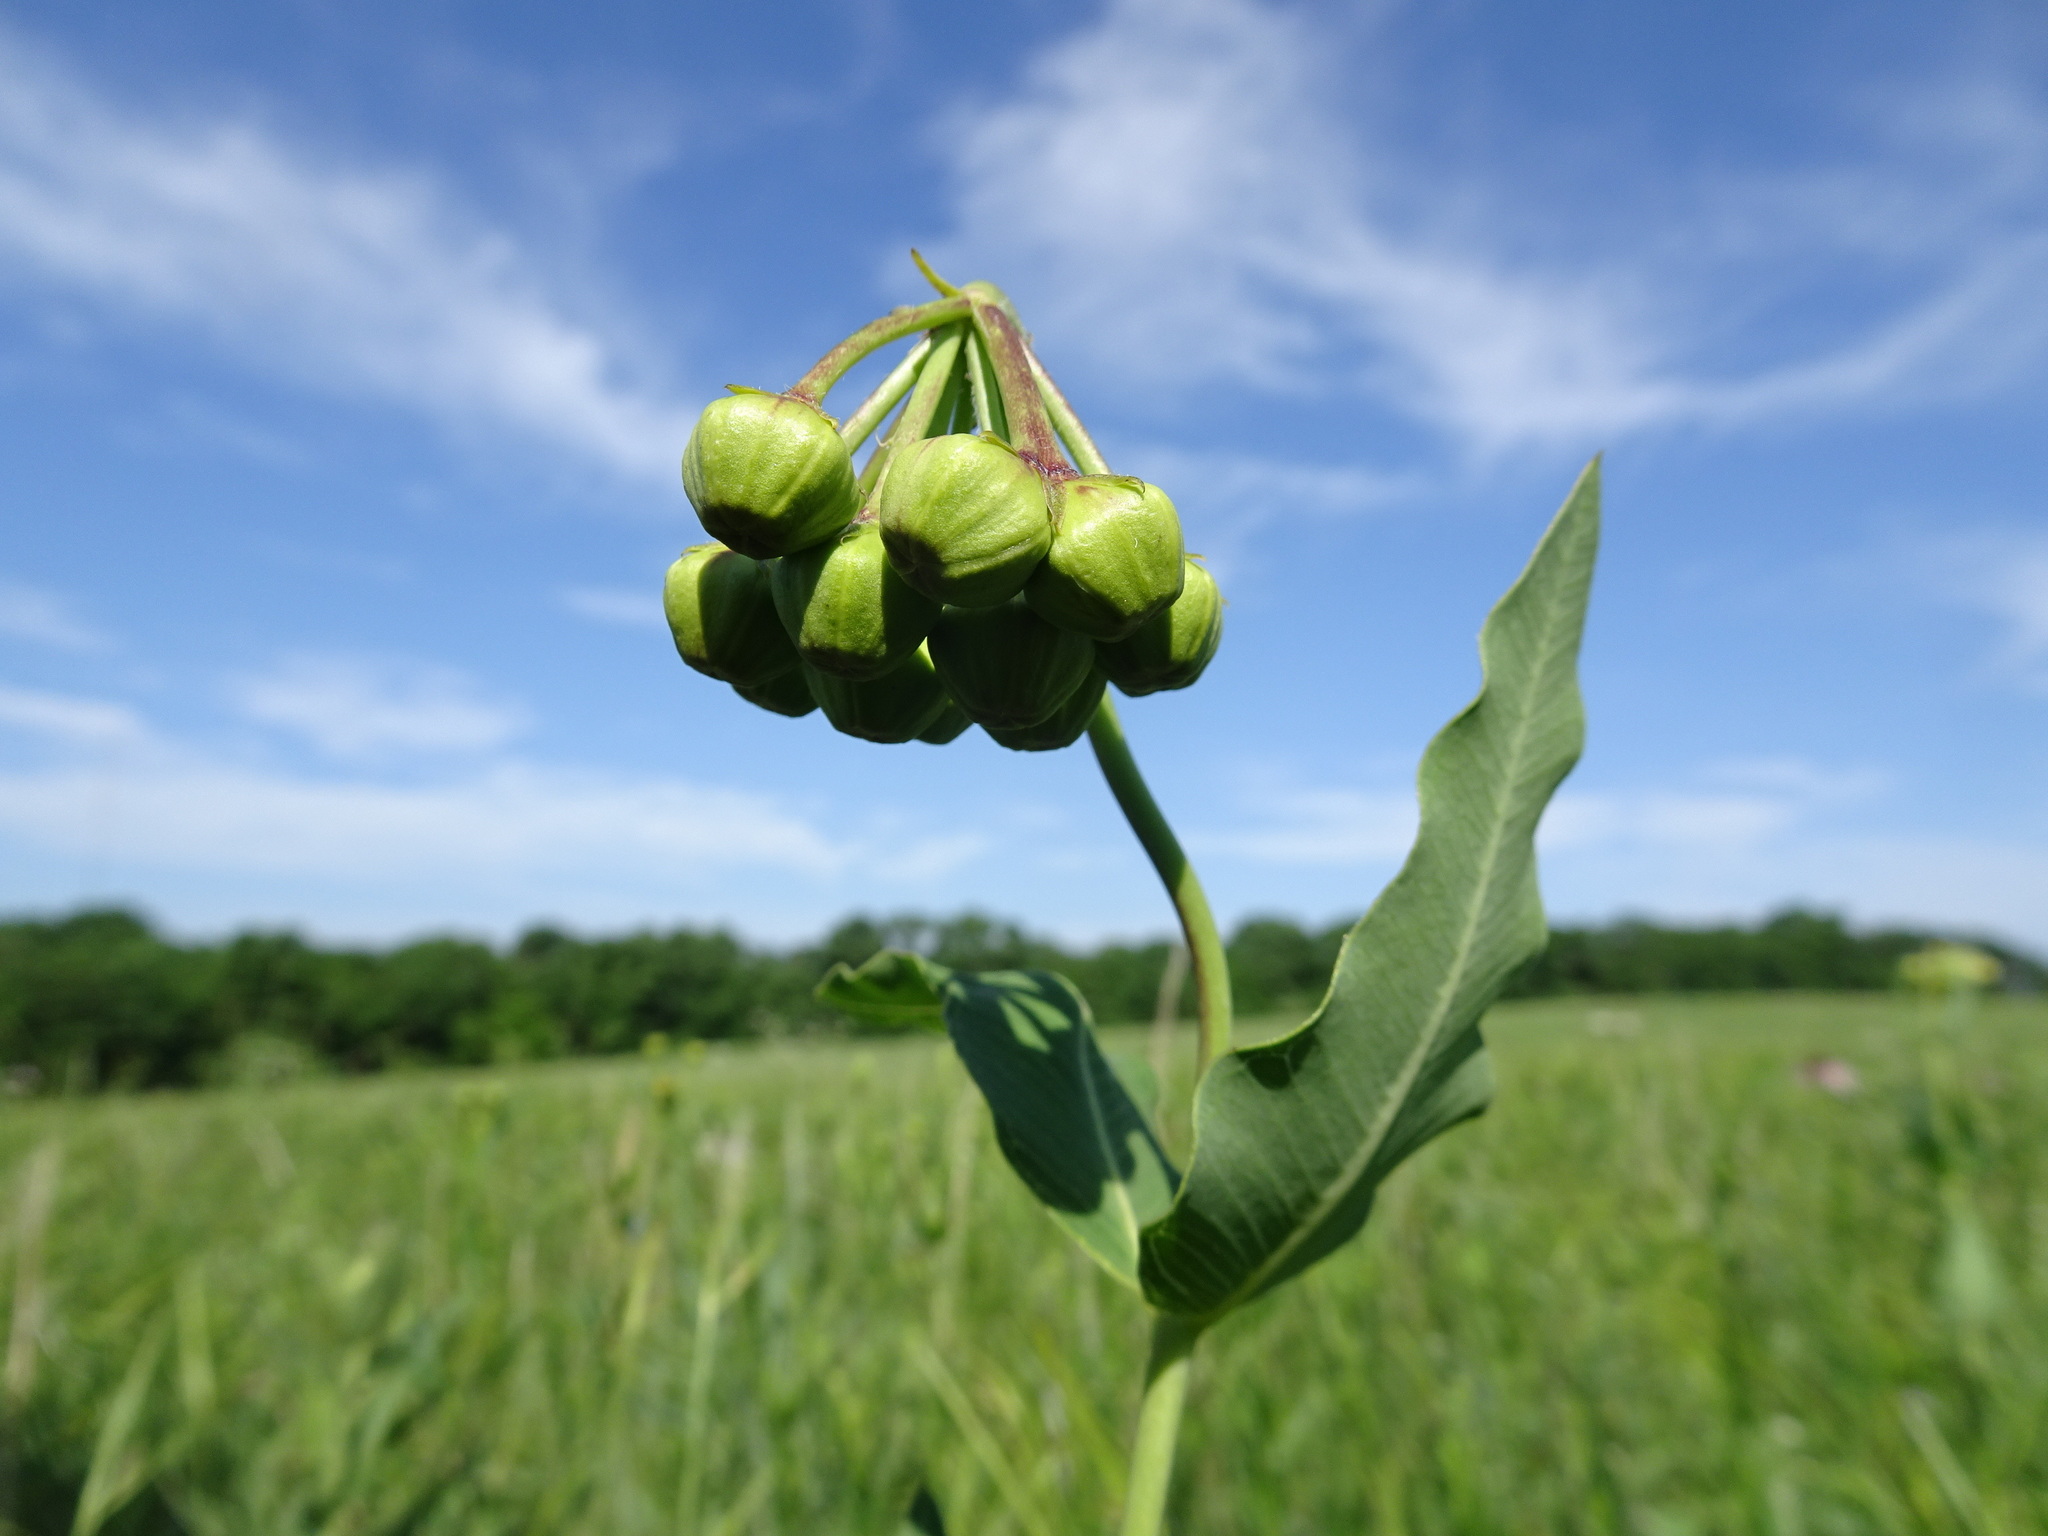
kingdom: Plantae
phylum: Tracheophyta
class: Magnoliopsida
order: Gentianales
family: Apocynaceae
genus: Asclepias
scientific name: Asclepias meadii
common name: Mead's milkweed
